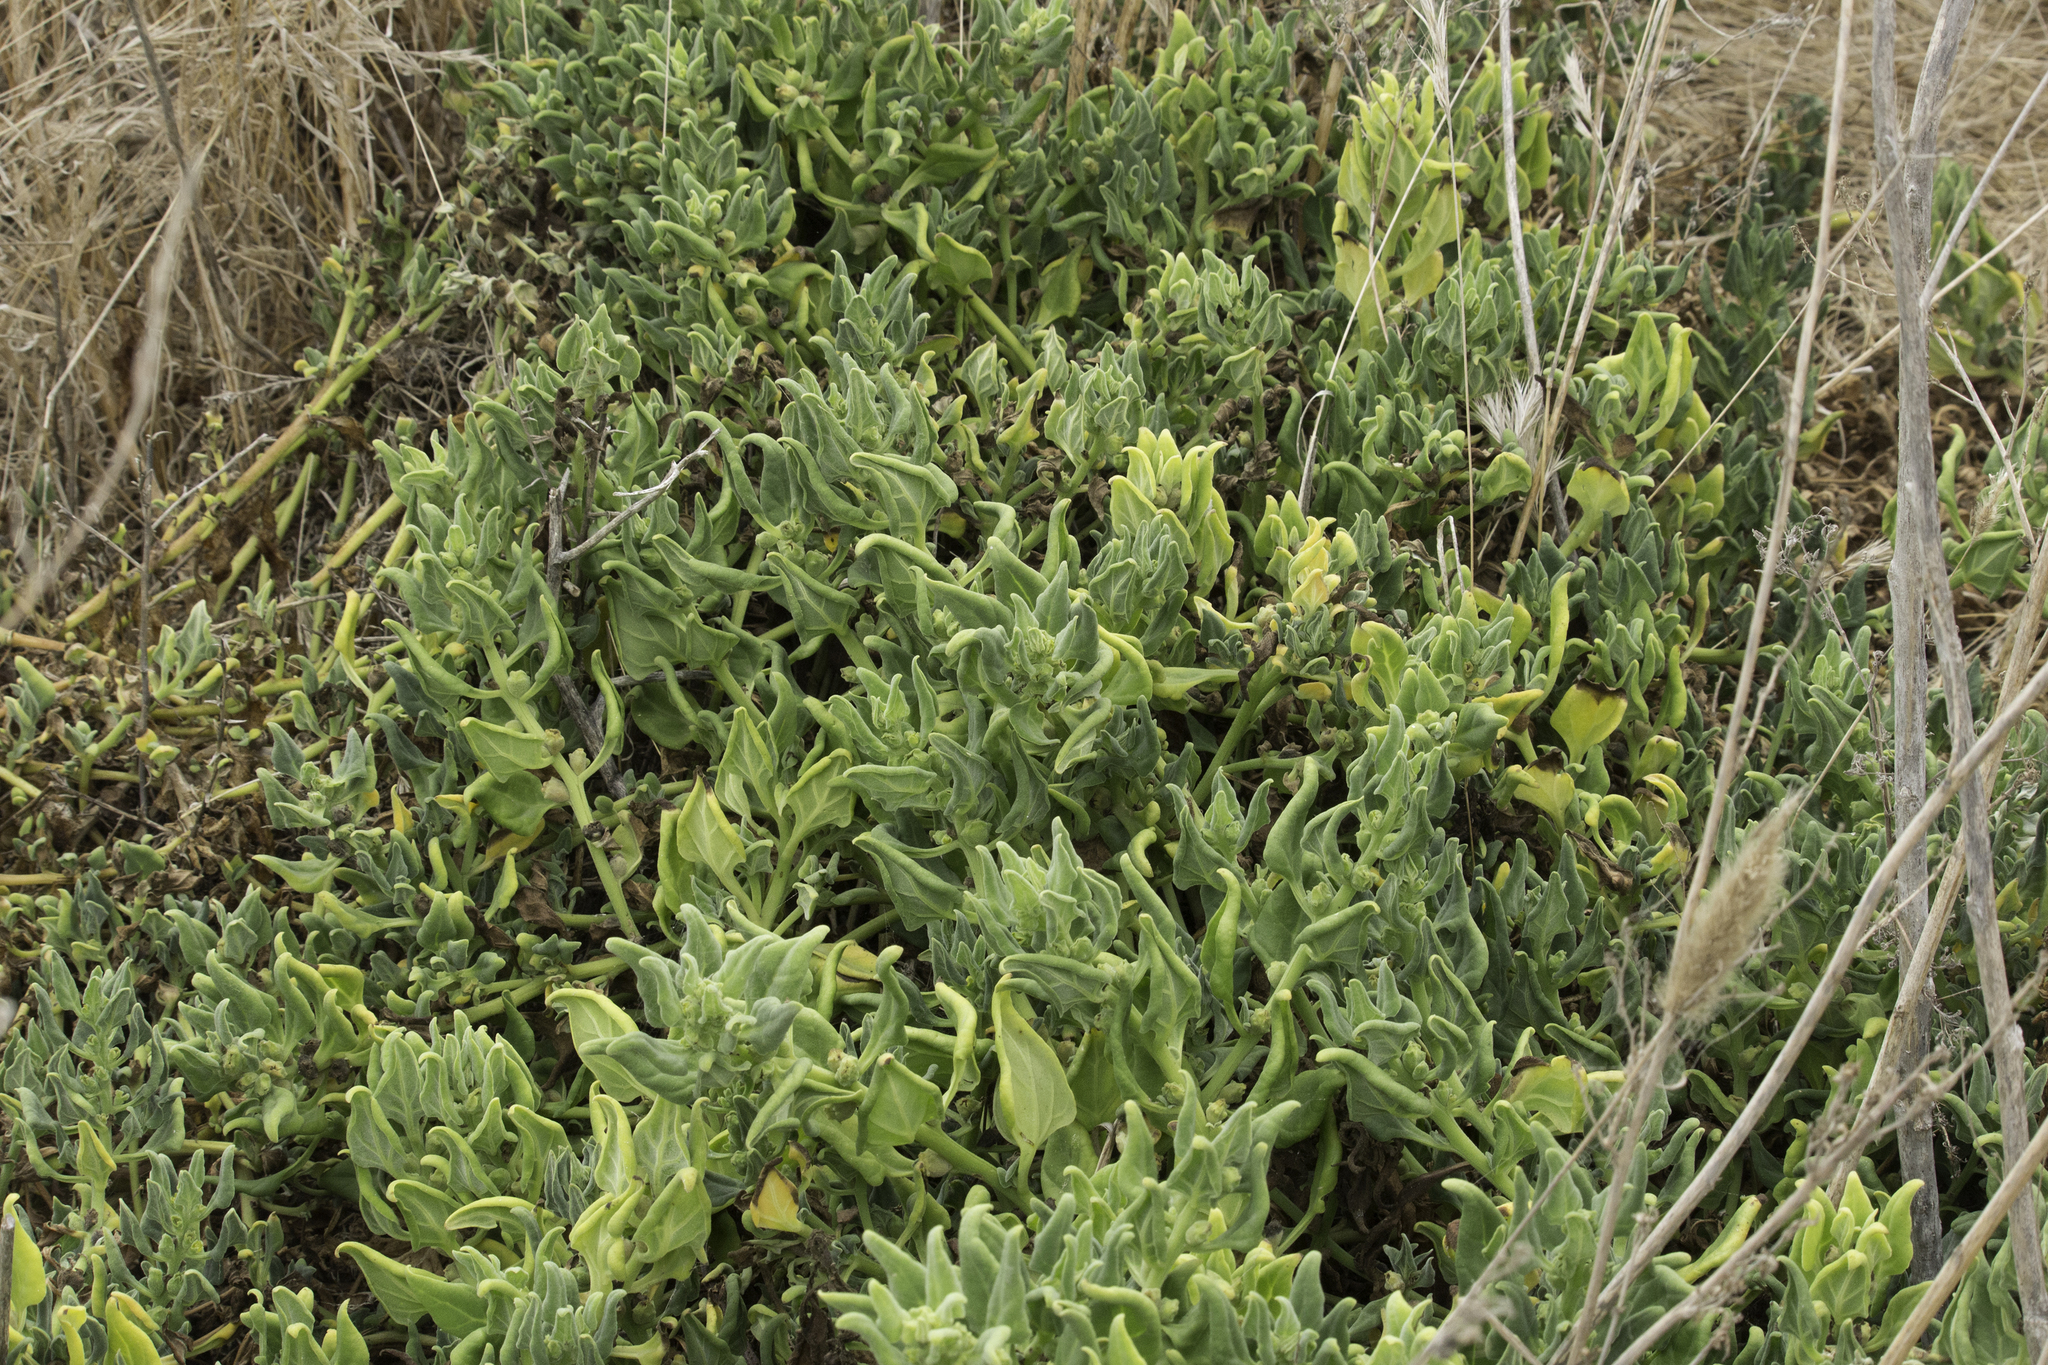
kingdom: Plantae
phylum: Tracheophyta
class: Magnoliopsida
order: Caryophyllales
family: Aizoaceae
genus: Tetragonia
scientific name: Tetragonia tetragonoides
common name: New zealand-spinach
